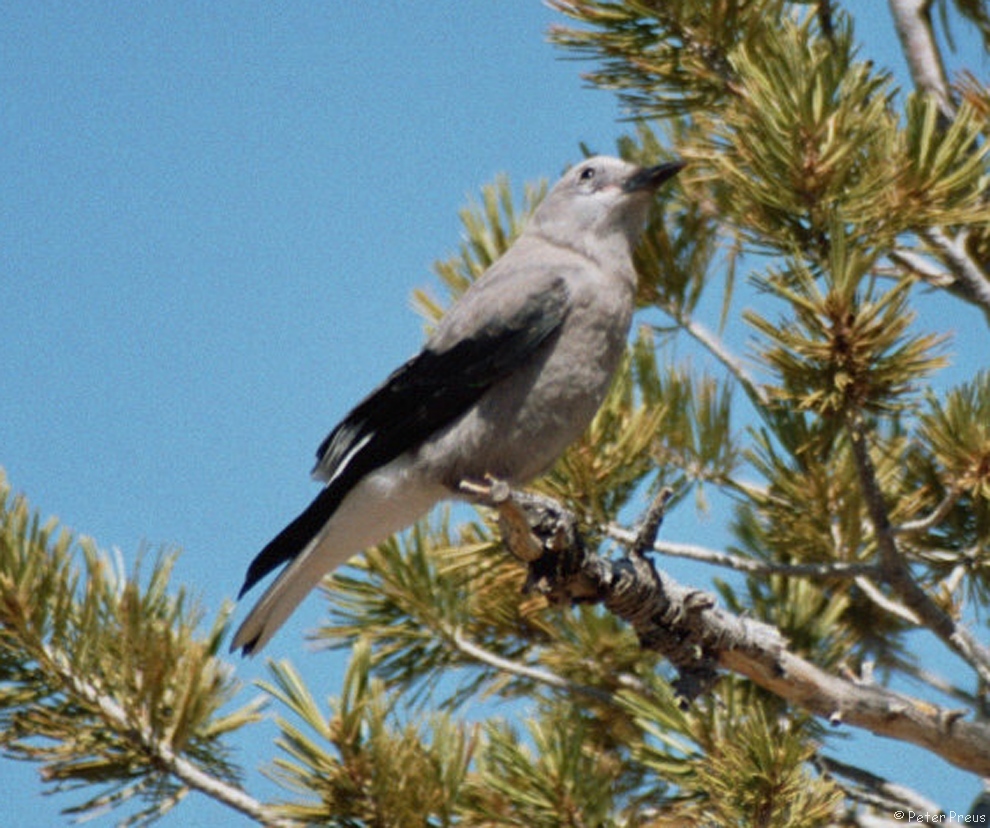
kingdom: Animalia
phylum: Chordata
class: Aves
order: Passeriformes
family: Corvidae
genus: Nucifraga
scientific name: Nucifraga columbiana
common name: Clark's nutcracker
